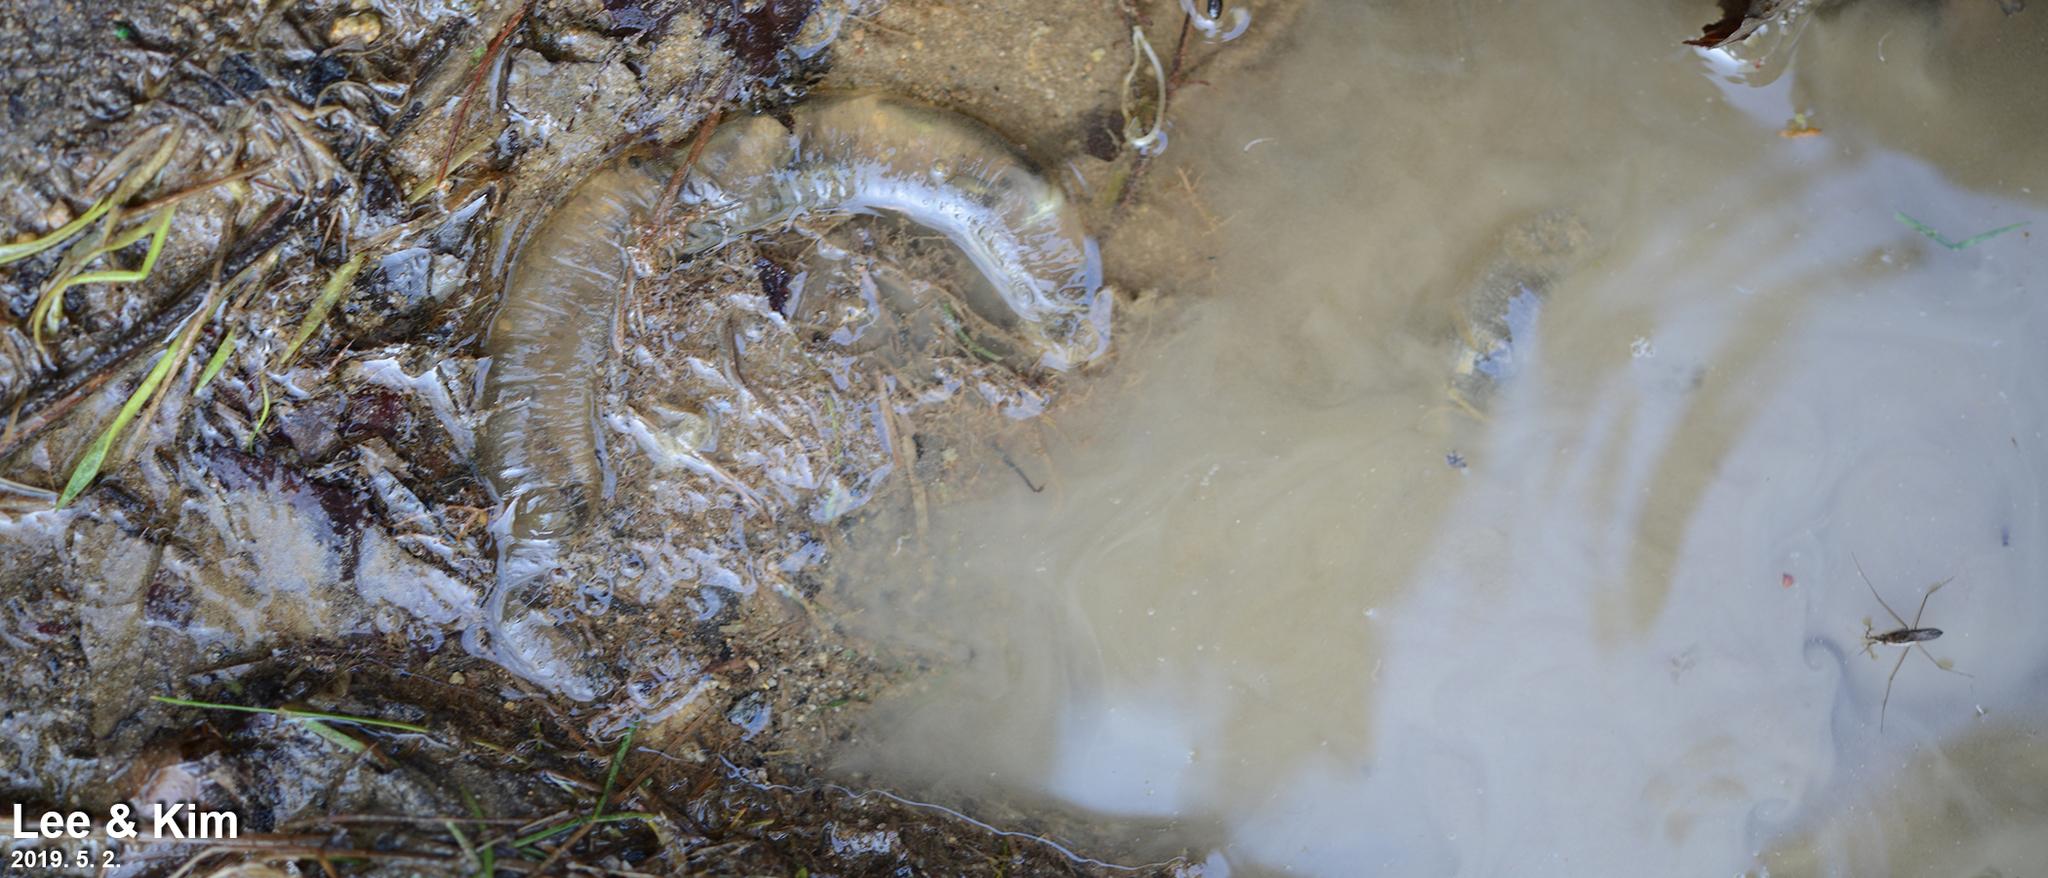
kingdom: Animalia
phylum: Chordata
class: Amphibia
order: Caudata
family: Hynobiidae
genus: Hynobius
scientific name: Hynobius leechii
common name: Gensan salamander
